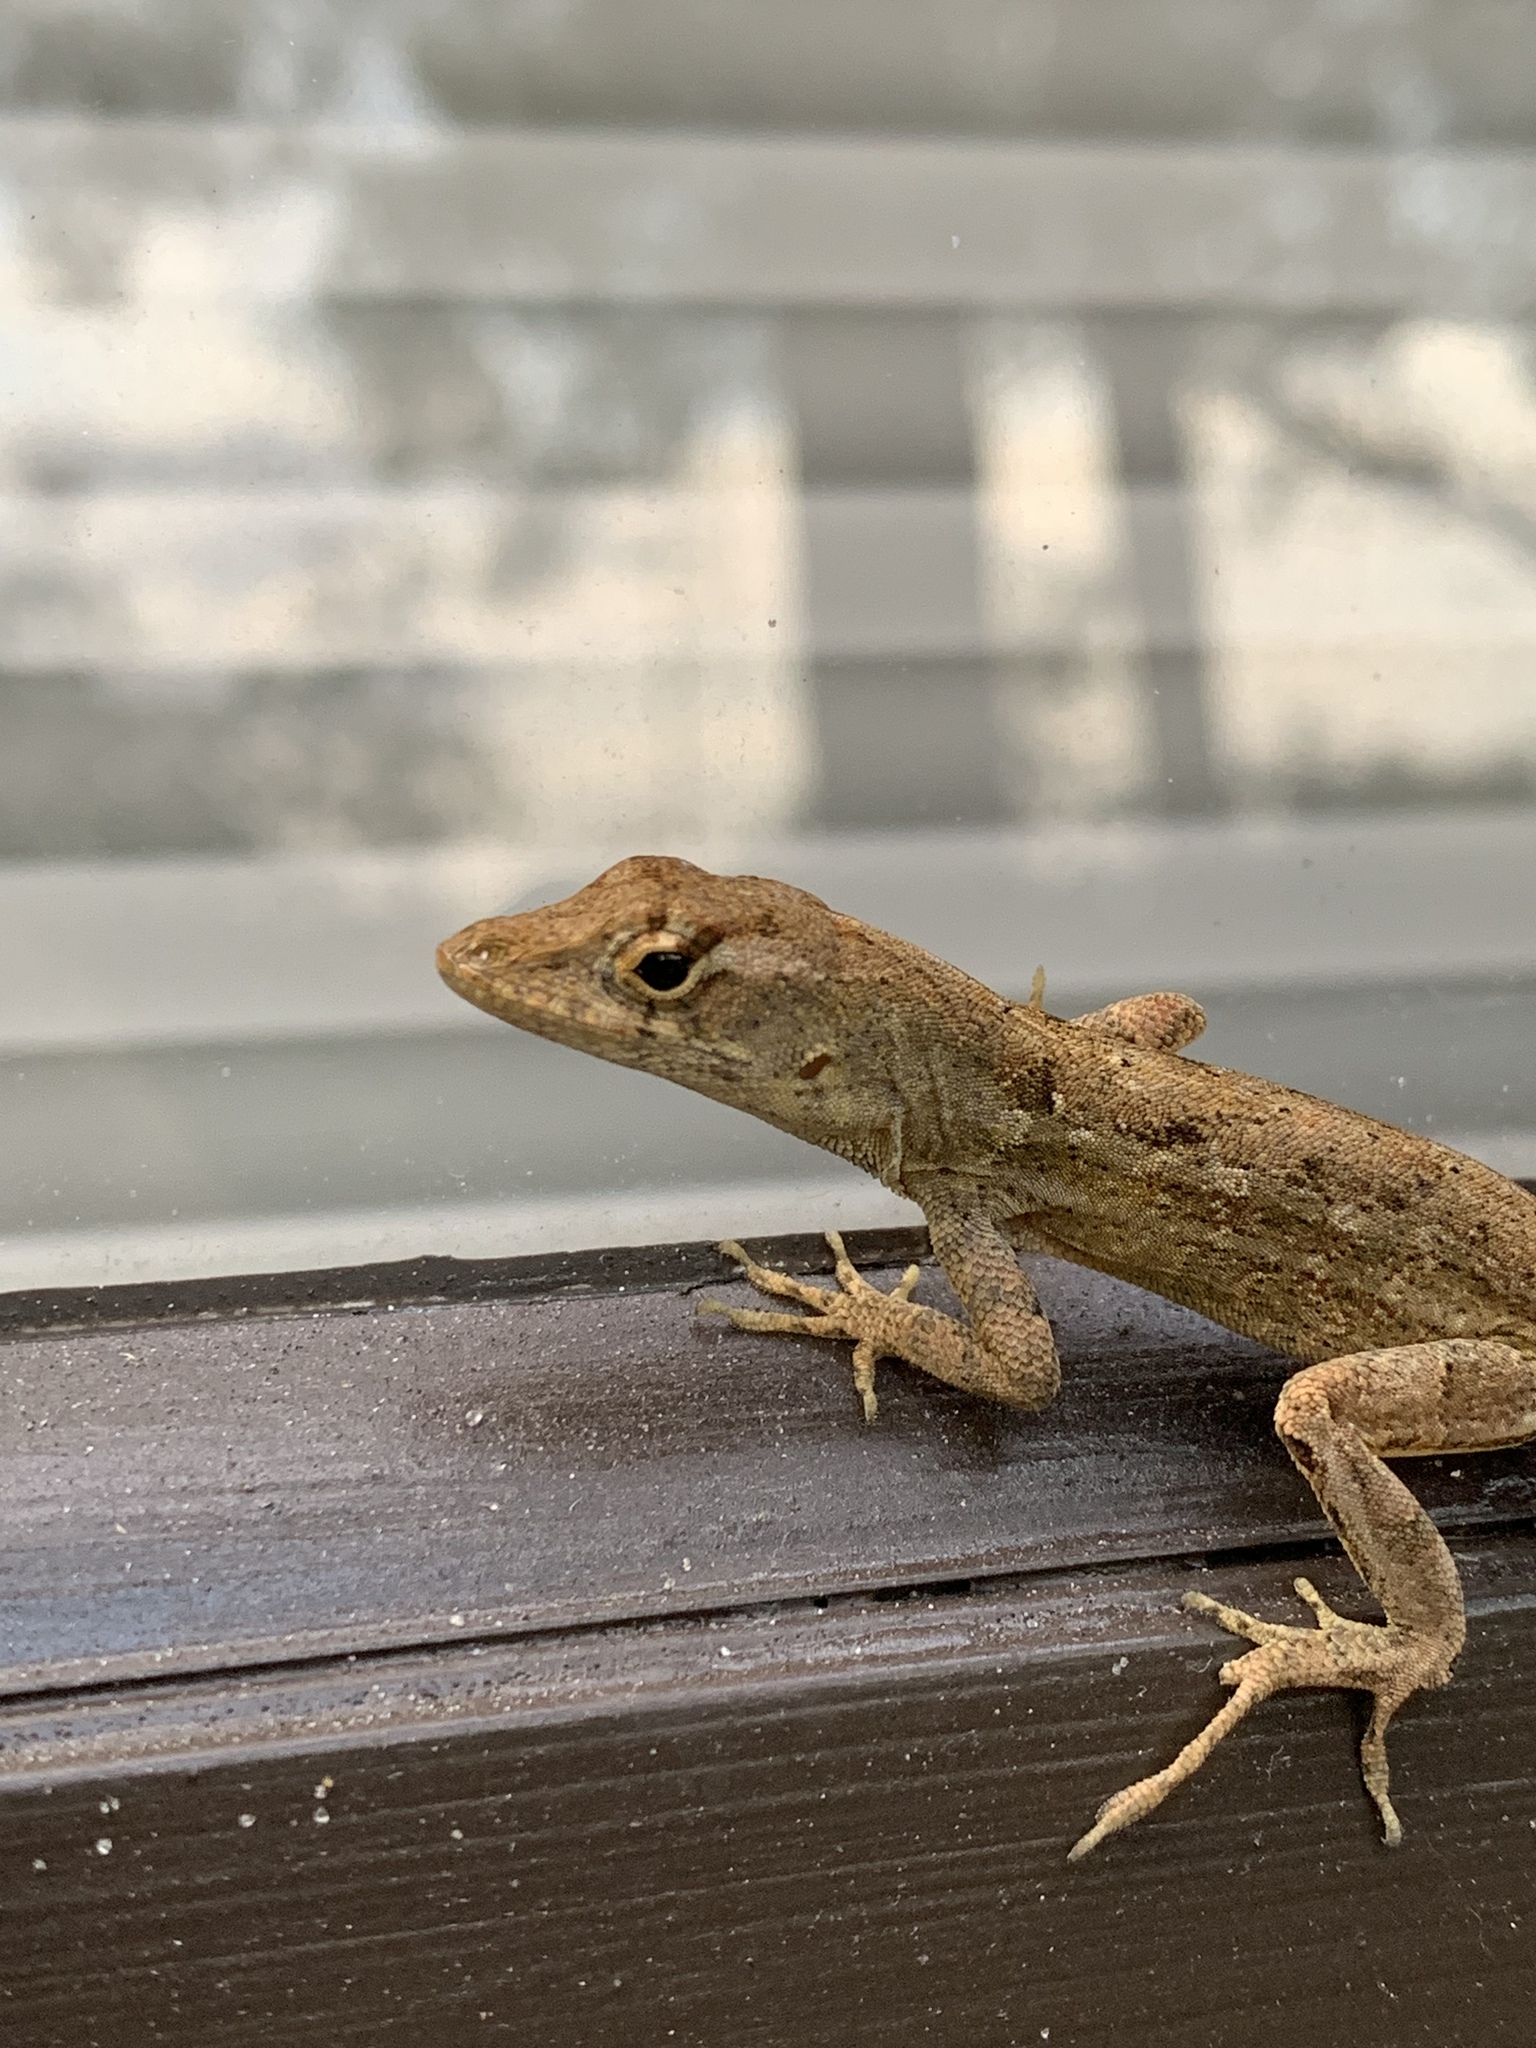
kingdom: Animalia
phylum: Chordata
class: Squamata
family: Dactyloidae
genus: Anolis
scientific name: Anolis sagrei
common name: Brown anole
